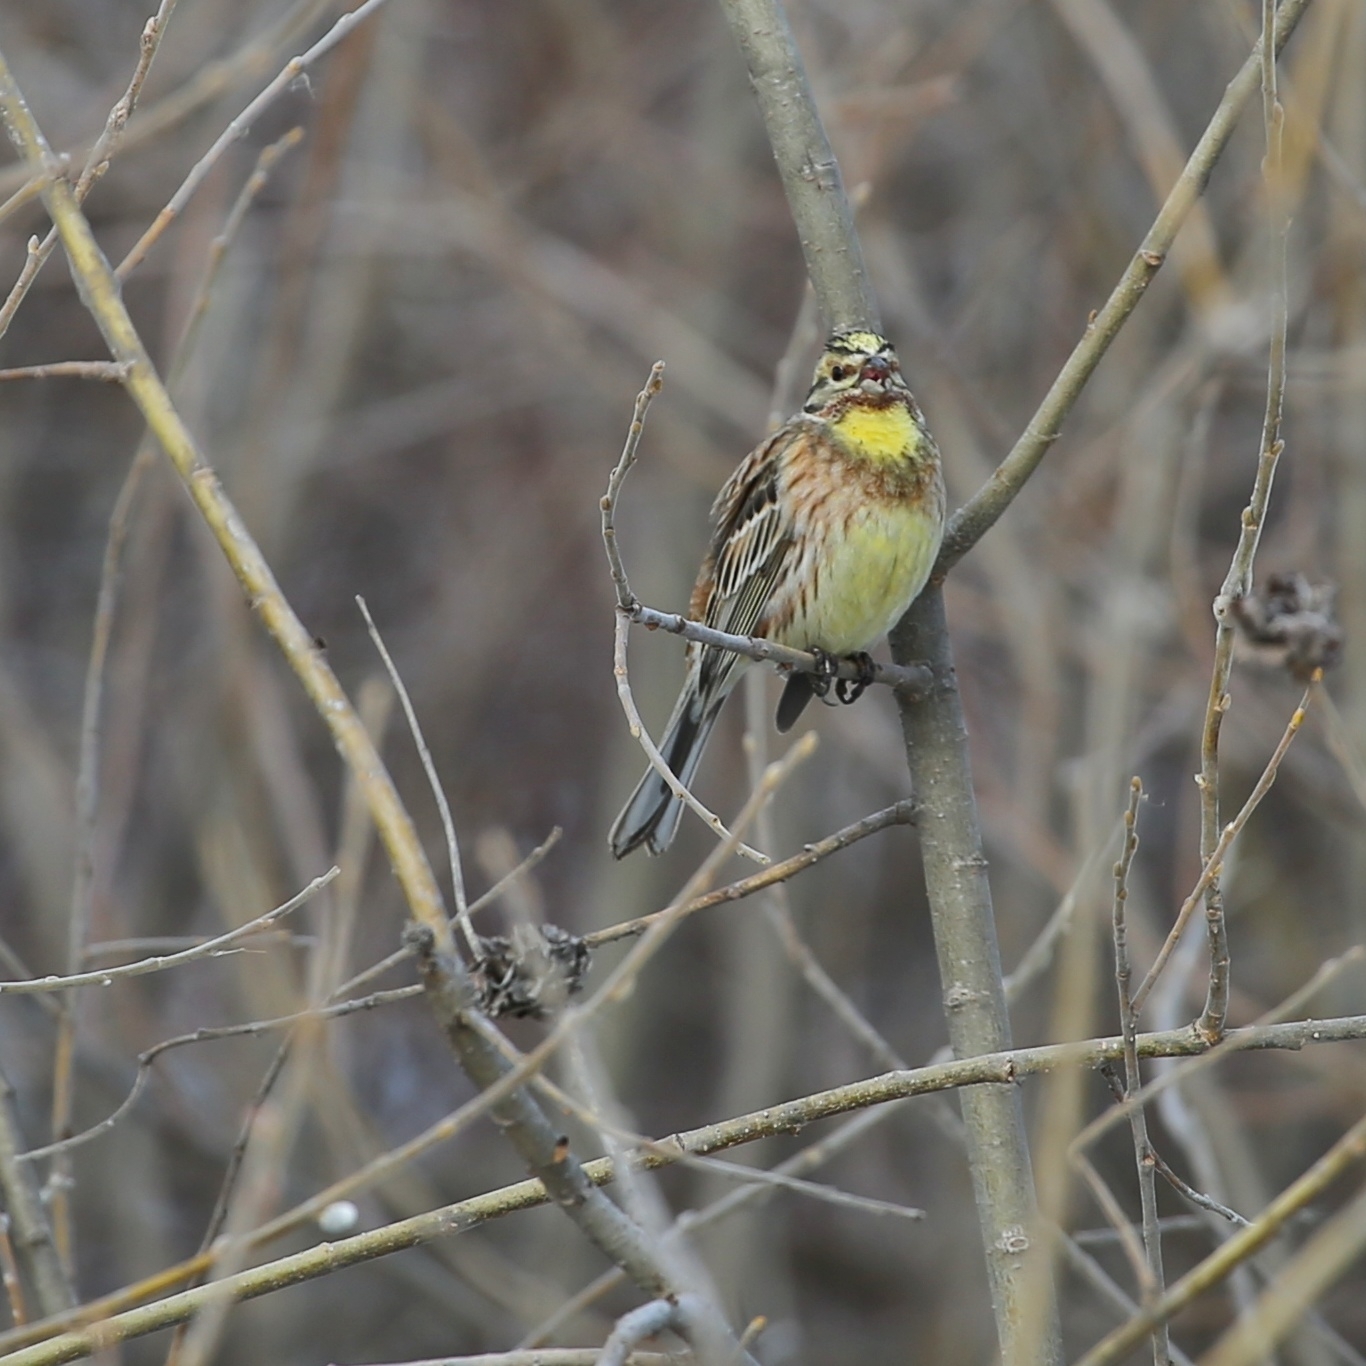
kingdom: Animalia
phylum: Chordata
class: Aves
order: Passeriformes
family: Emberizidae
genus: Emberiza
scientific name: Emberiza citrinella
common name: Yellowhammer
